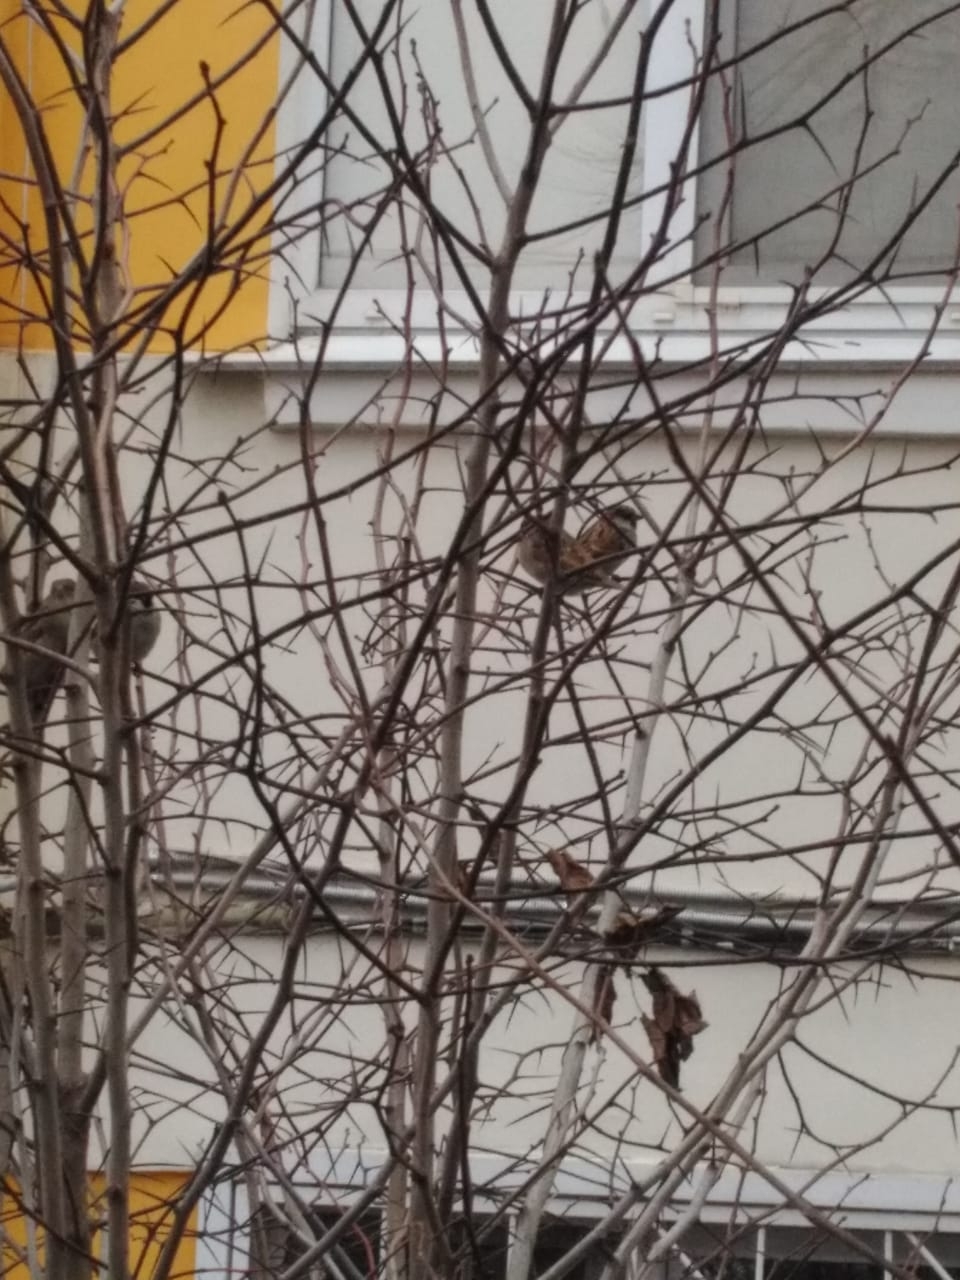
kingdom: Animalia
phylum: Chordata
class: Aves
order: Passeriformes
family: Passeridae
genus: Passer
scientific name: Passer domesticus
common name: House sparrow
